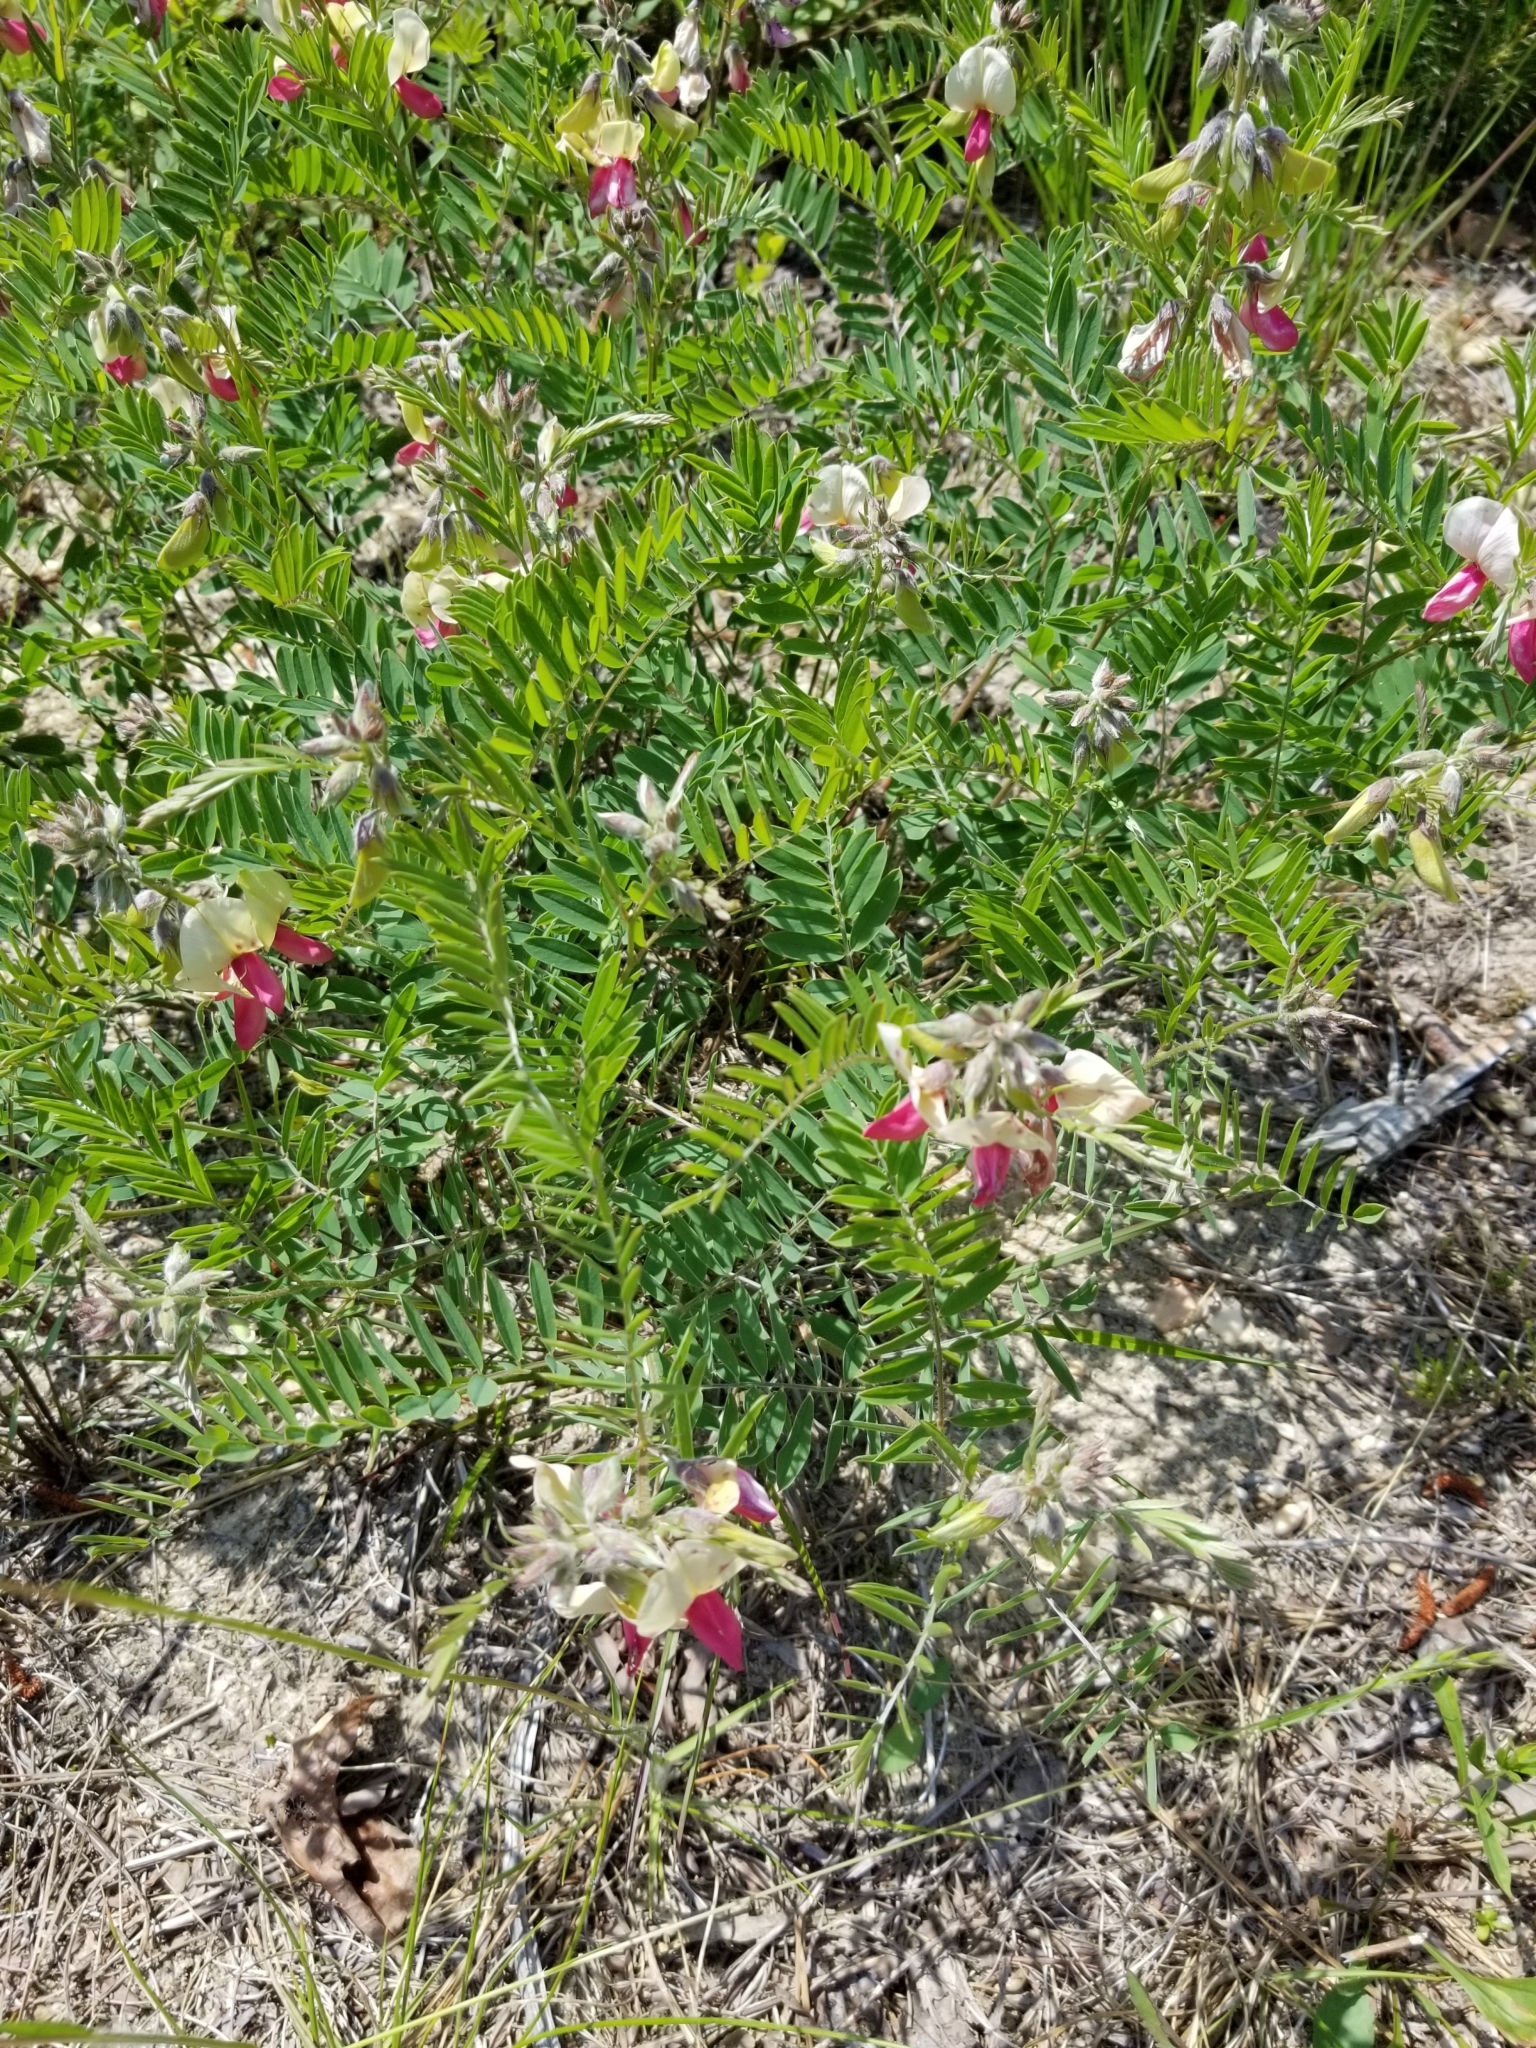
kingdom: Plantae
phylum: Tracheophyta
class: Magnoliopsida
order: Fabales
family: Fabaceae
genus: Tephrosia
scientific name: Tephrosia virginiana
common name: Rabbit-pea
